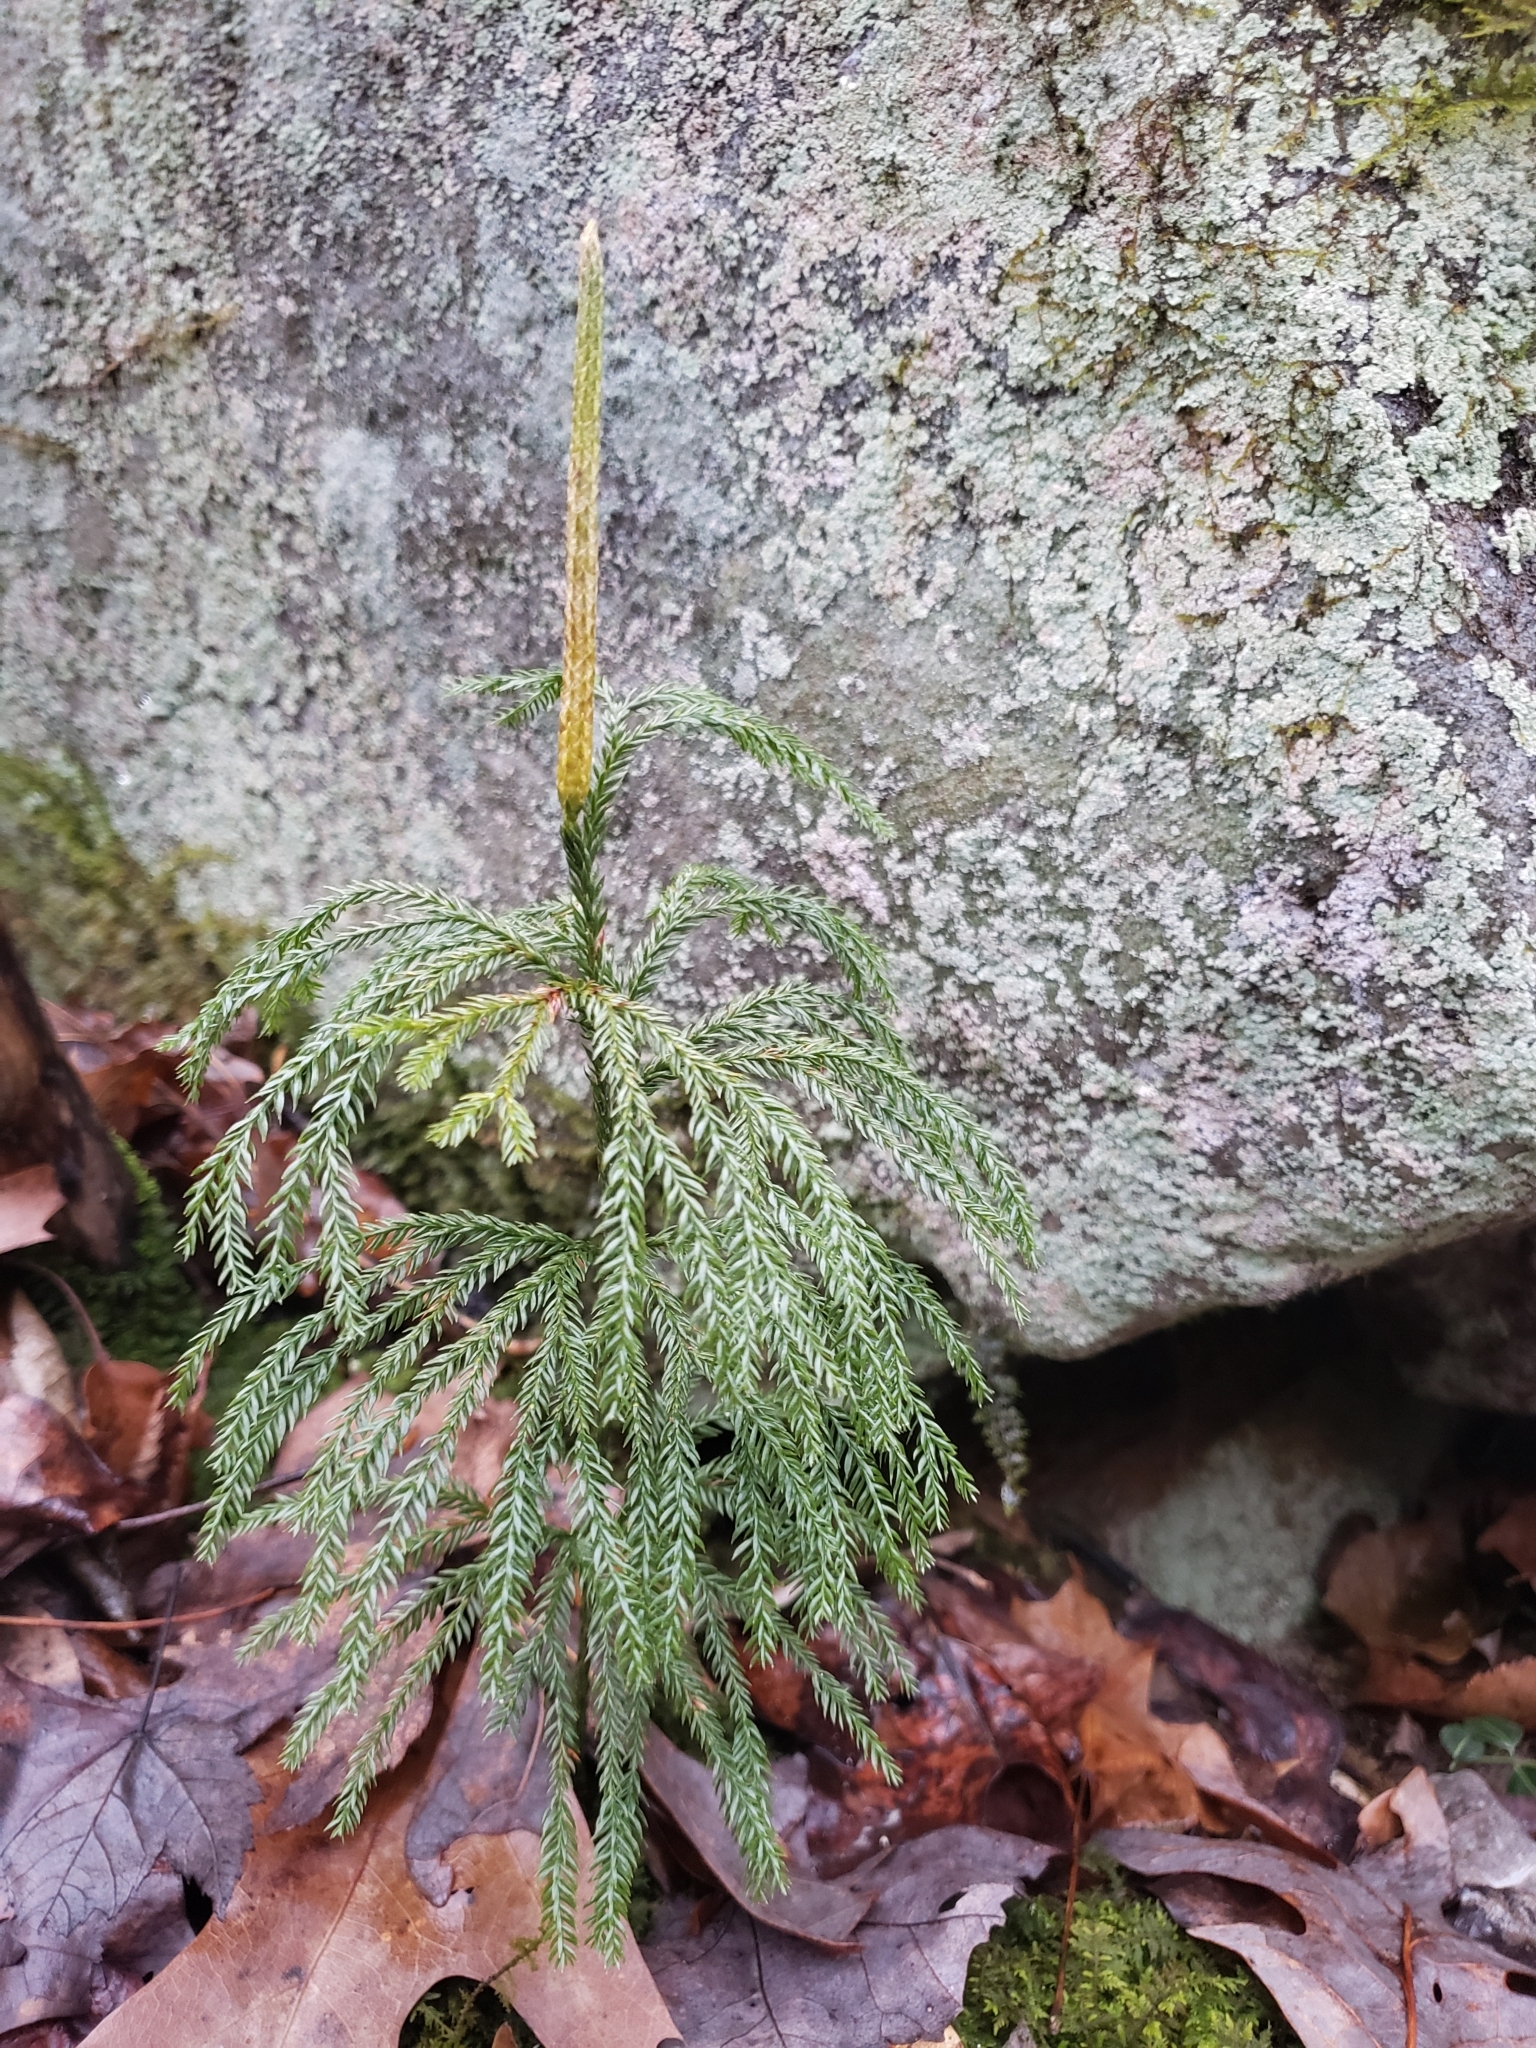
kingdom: Plantae
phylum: Tracheophyta
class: Lycopodiopsida
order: Lycopodiales
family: Lycopodiaceae
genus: Dendrolycopodium
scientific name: Dendrolycopodium obscurum
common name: Common ground-pine
